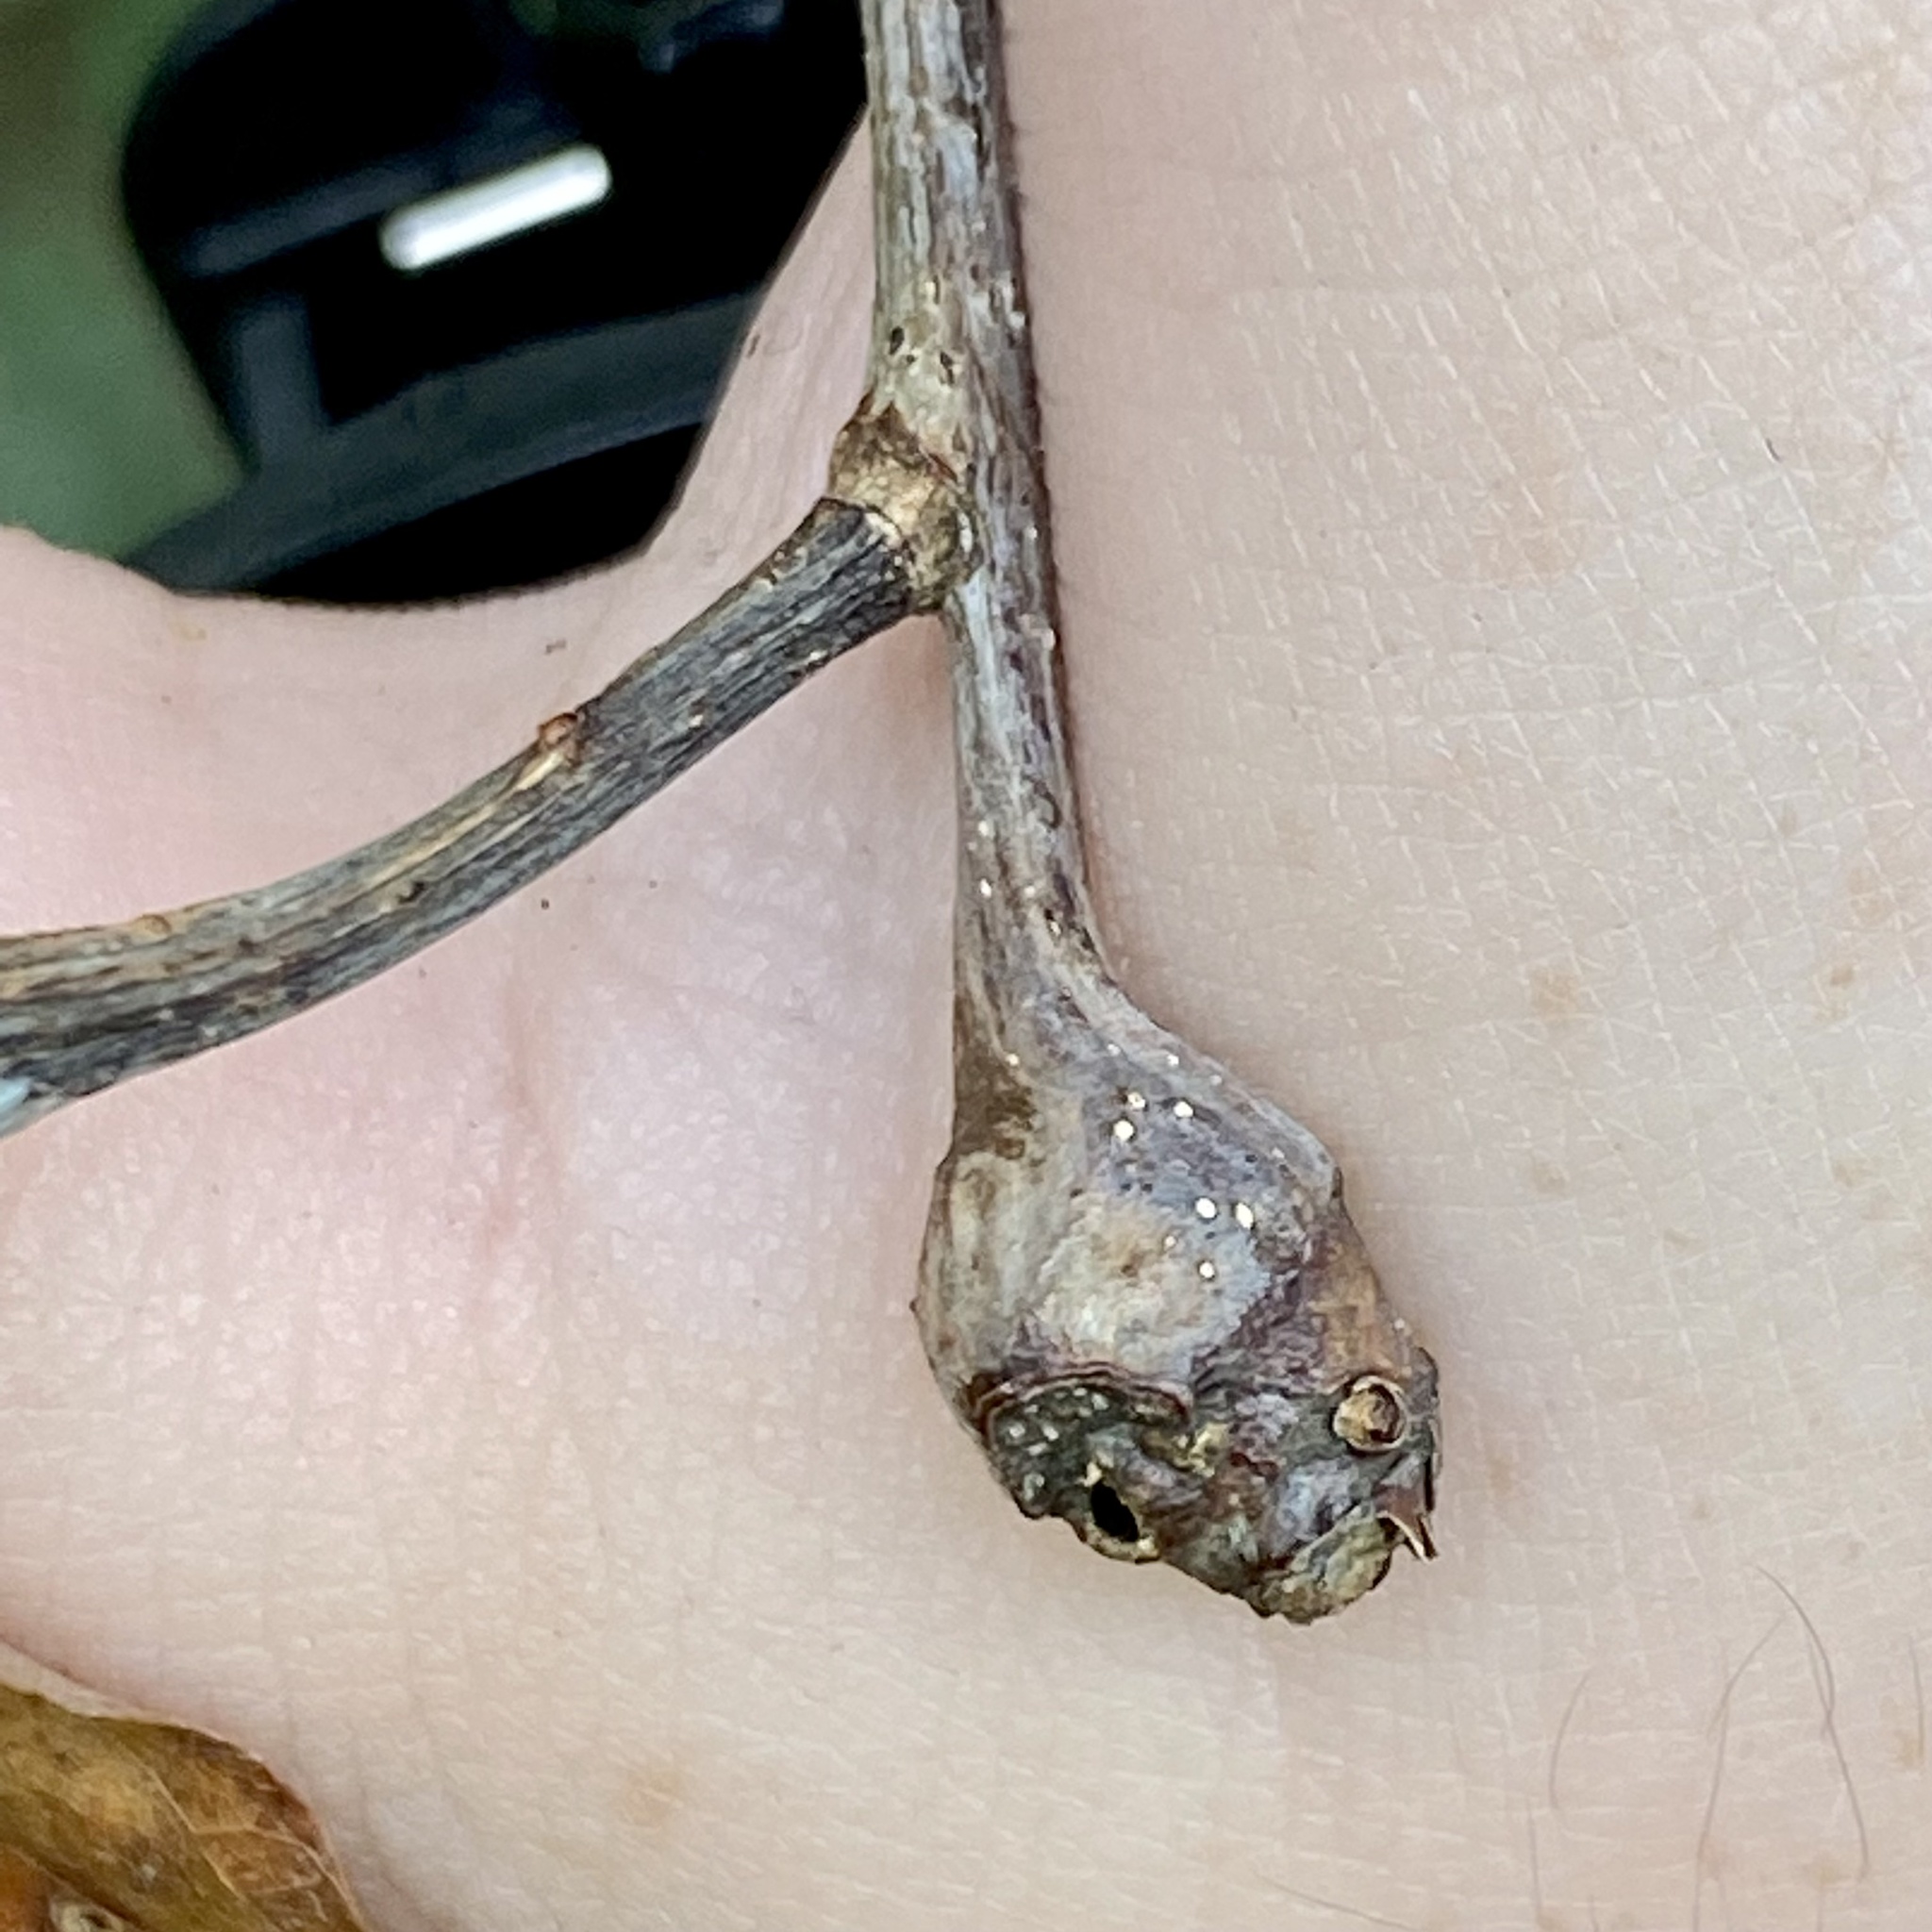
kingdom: Animalia
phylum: Arthropoda
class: Insecta
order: Hymenoptera
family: Cynipidae
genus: Callirhytis
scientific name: Callirhytis clavula
